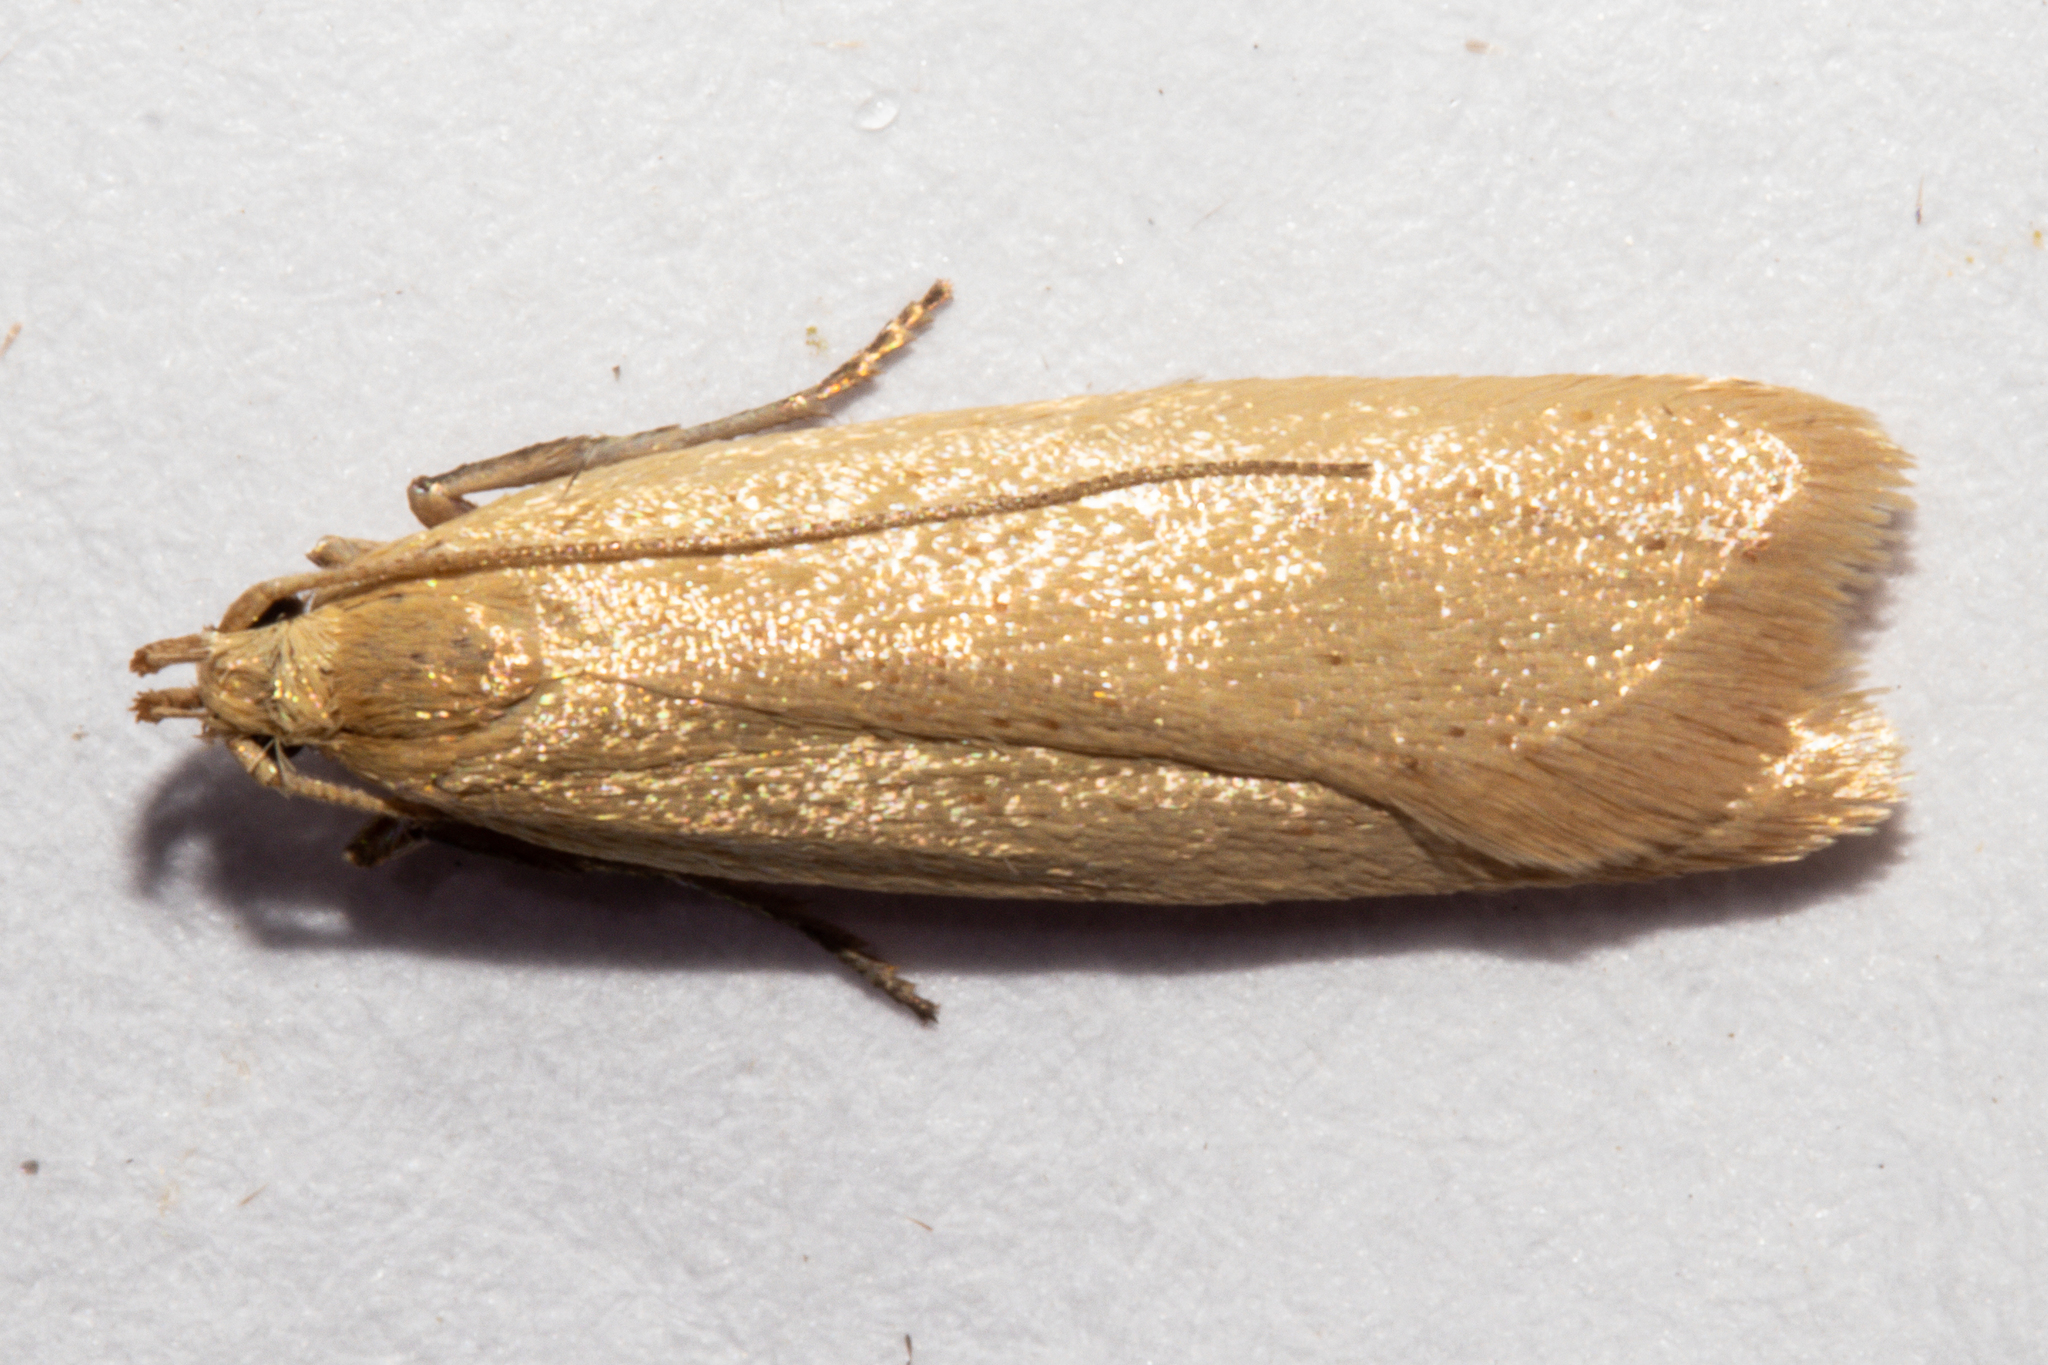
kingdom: Animalia
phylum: Arthropoda
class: Insecta
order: Lepidoptera
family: Oecophoridae
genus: Gymnobathra
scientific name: Gymnobathra sarcoxantha
